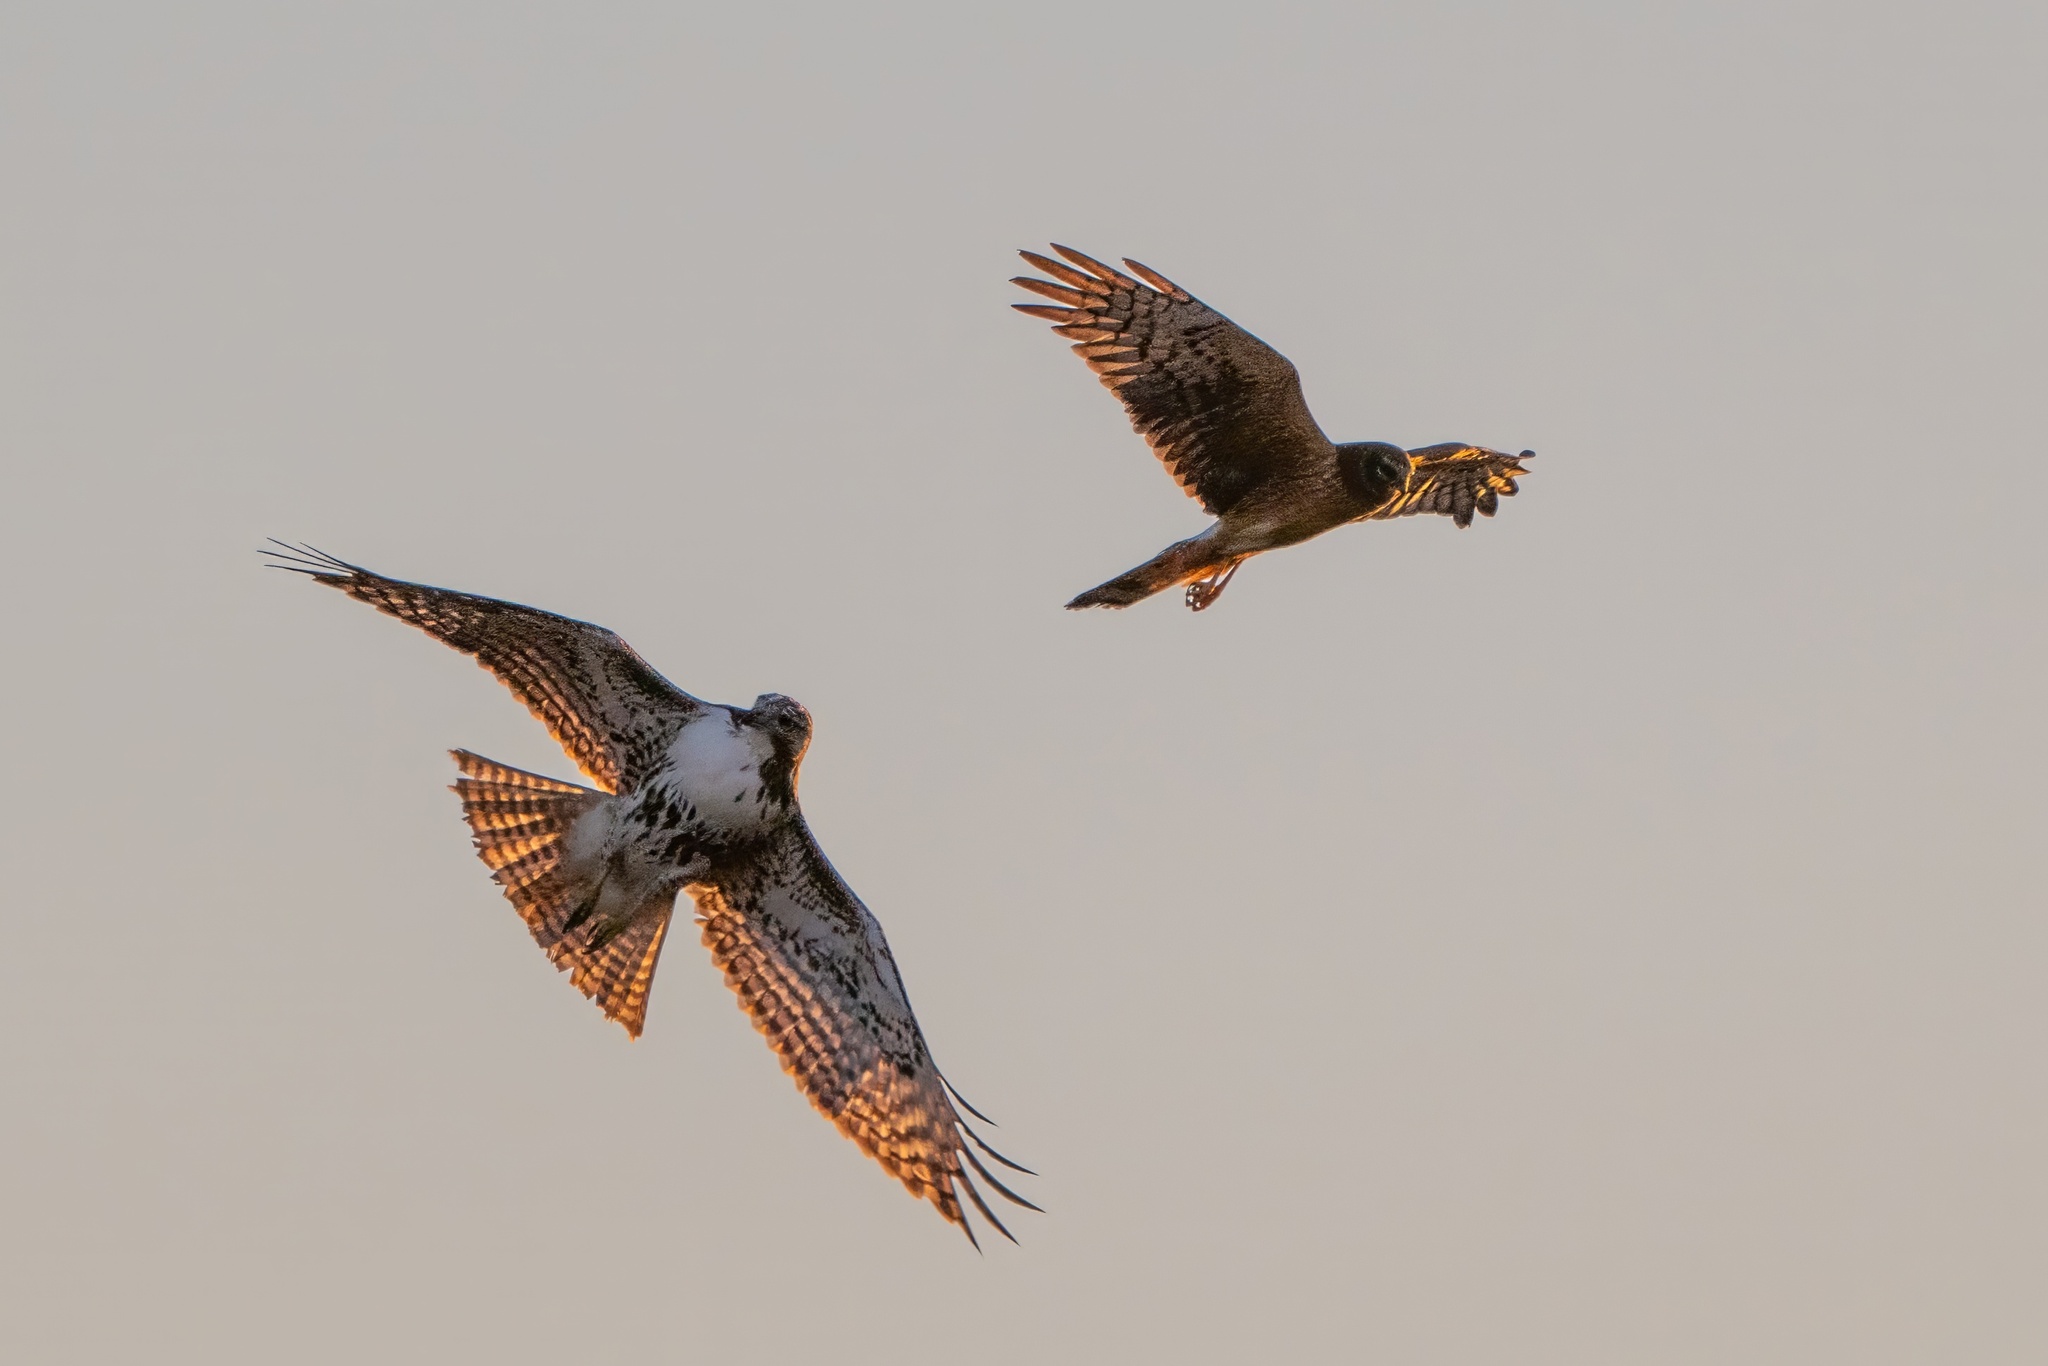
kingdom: Animalia
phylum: Chordata
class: Aves
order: Accipitriformes
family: Accipitridae
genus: Buteo
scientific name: Buteo jamaicensis
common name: Red-tailed hawk
